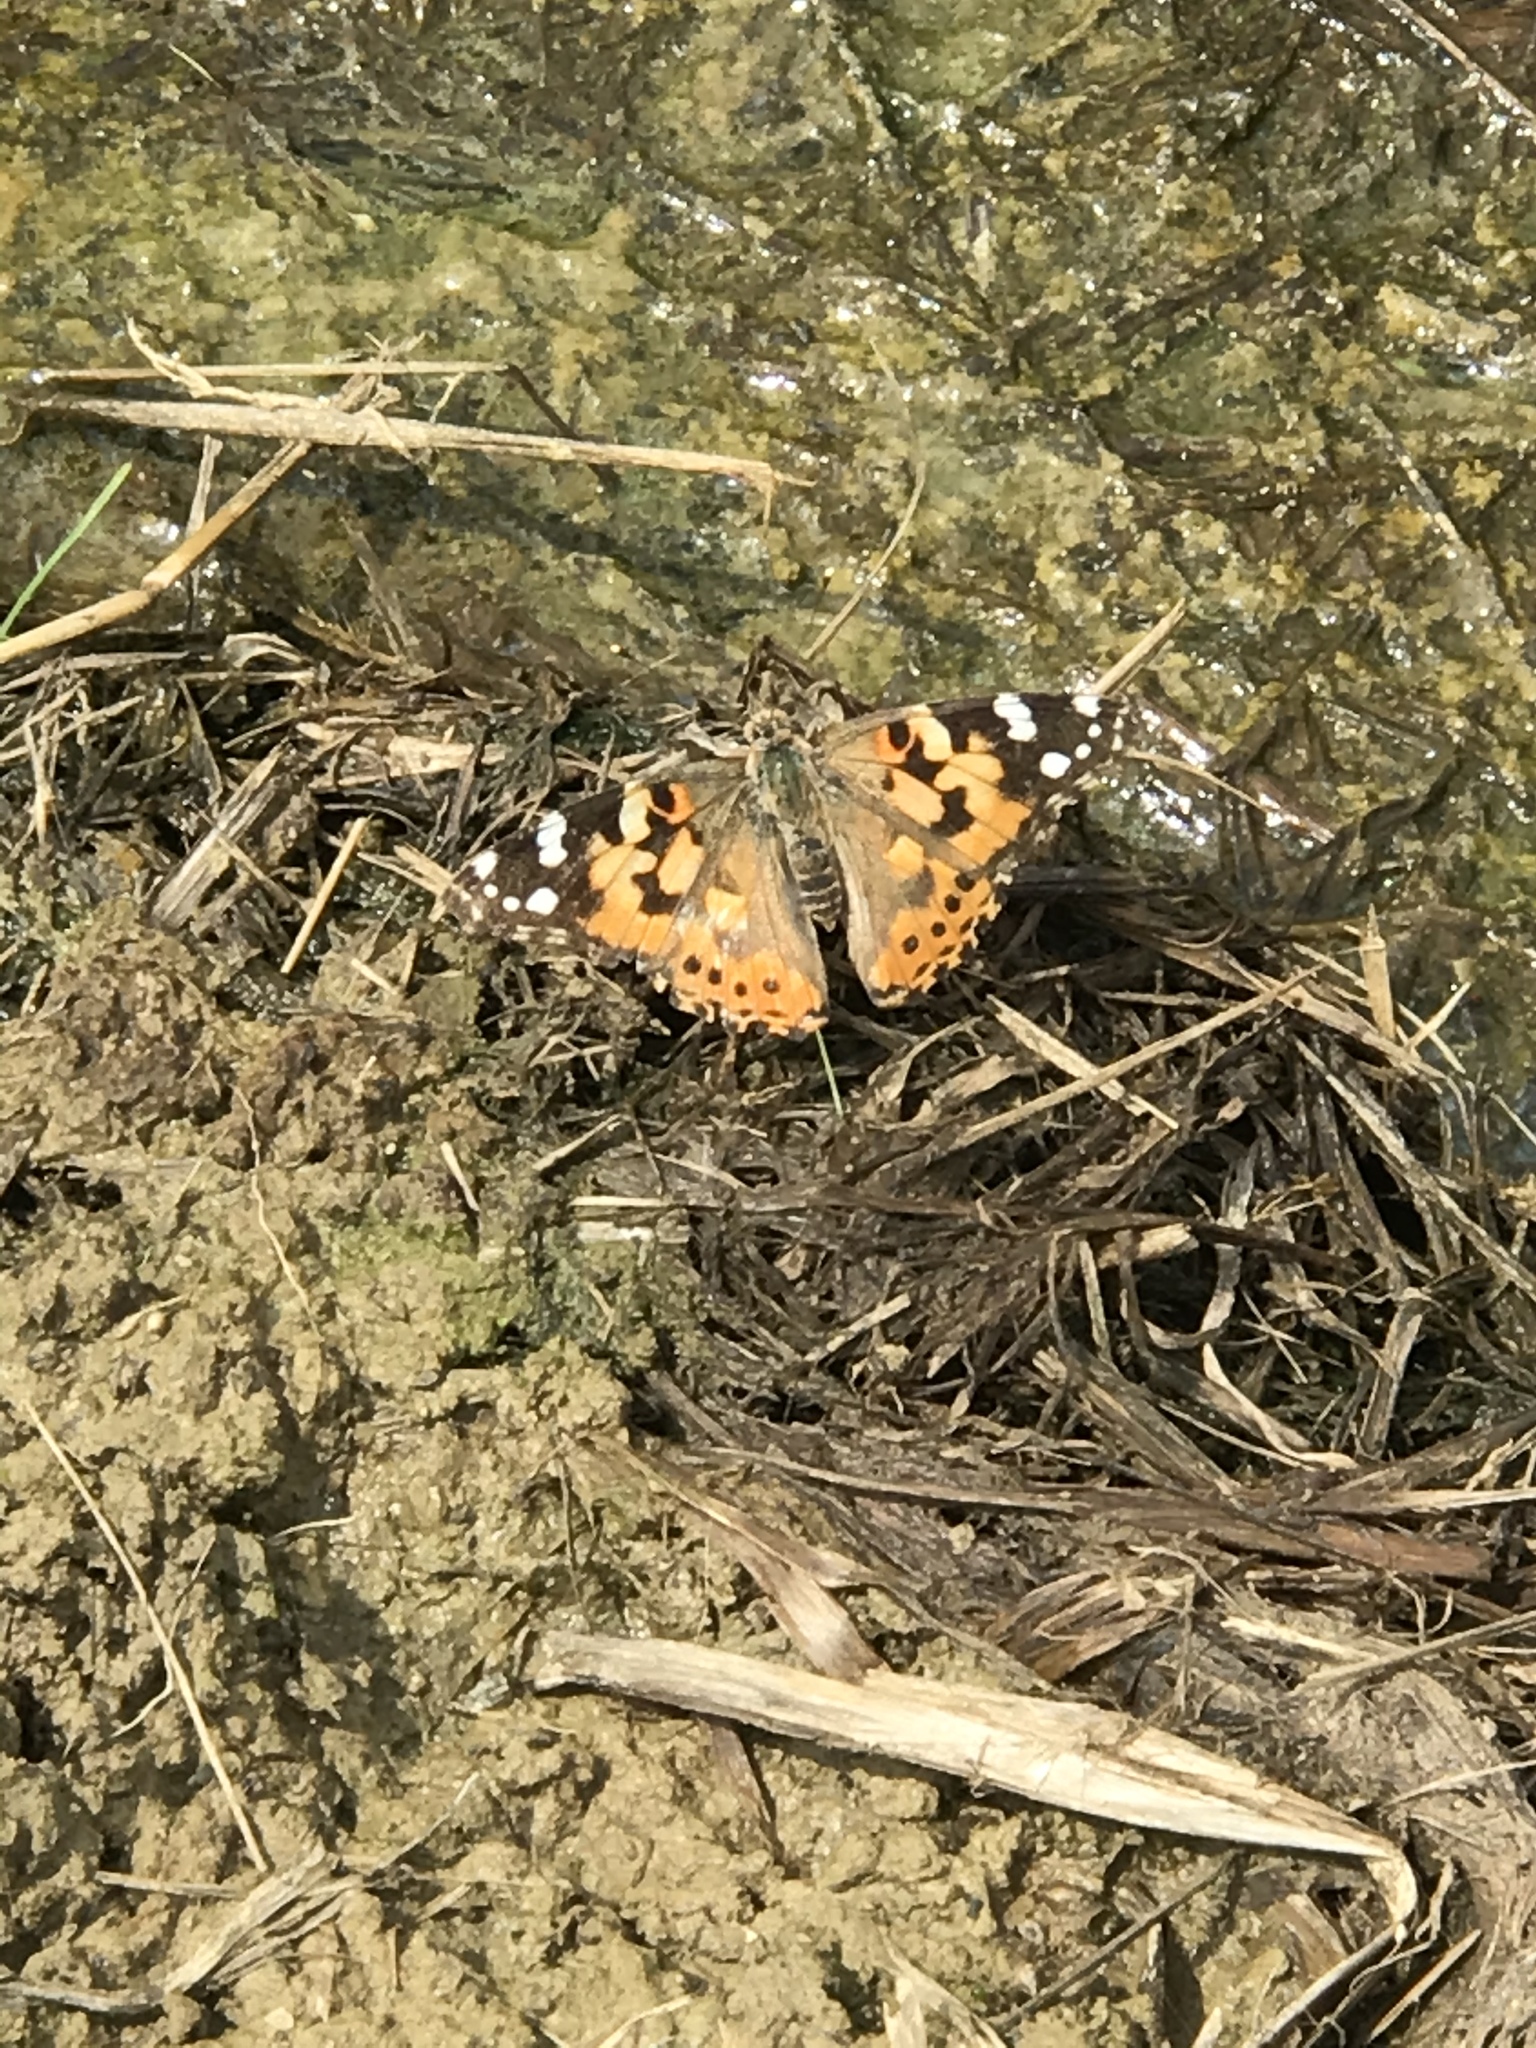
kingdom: Animalia
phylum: Arthropoda
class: Insecta
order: Lepidoptera
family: Nymphalidae
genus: Vanessa
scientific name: Vanessa cardui
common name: Painted lady
